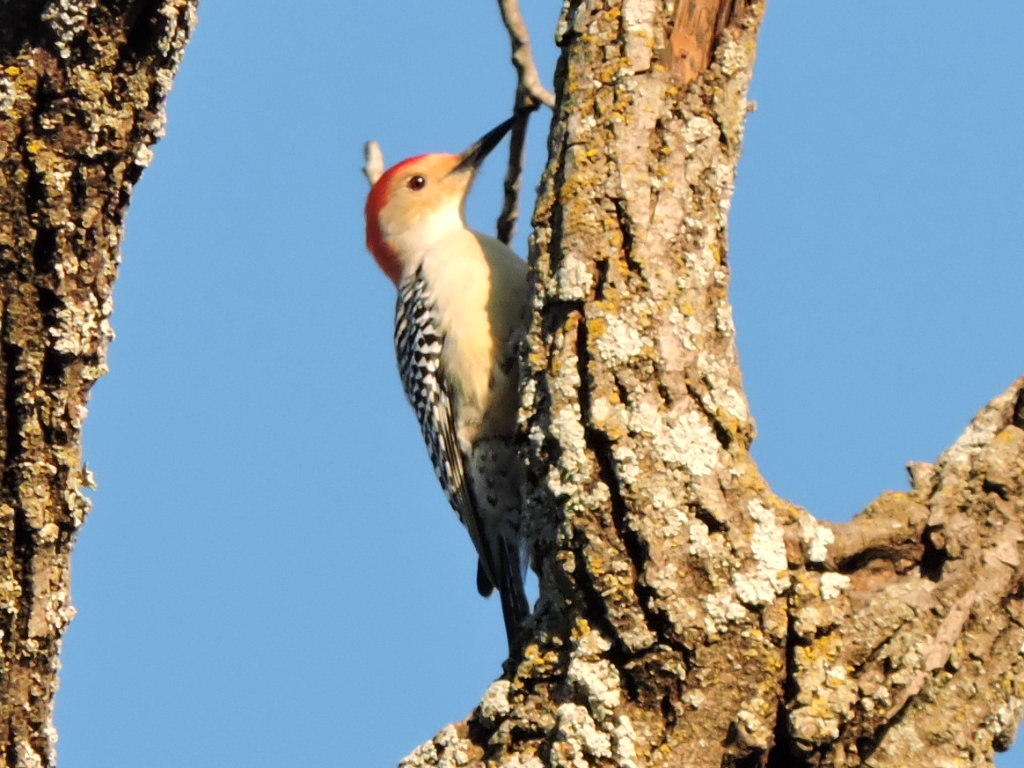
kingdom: Animalia
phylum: Chordata
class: Aves
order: Piciformes
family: Picidae
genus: Melanerpes
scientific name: Melanerpes carolinus
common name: Red-bellied woodpecker
